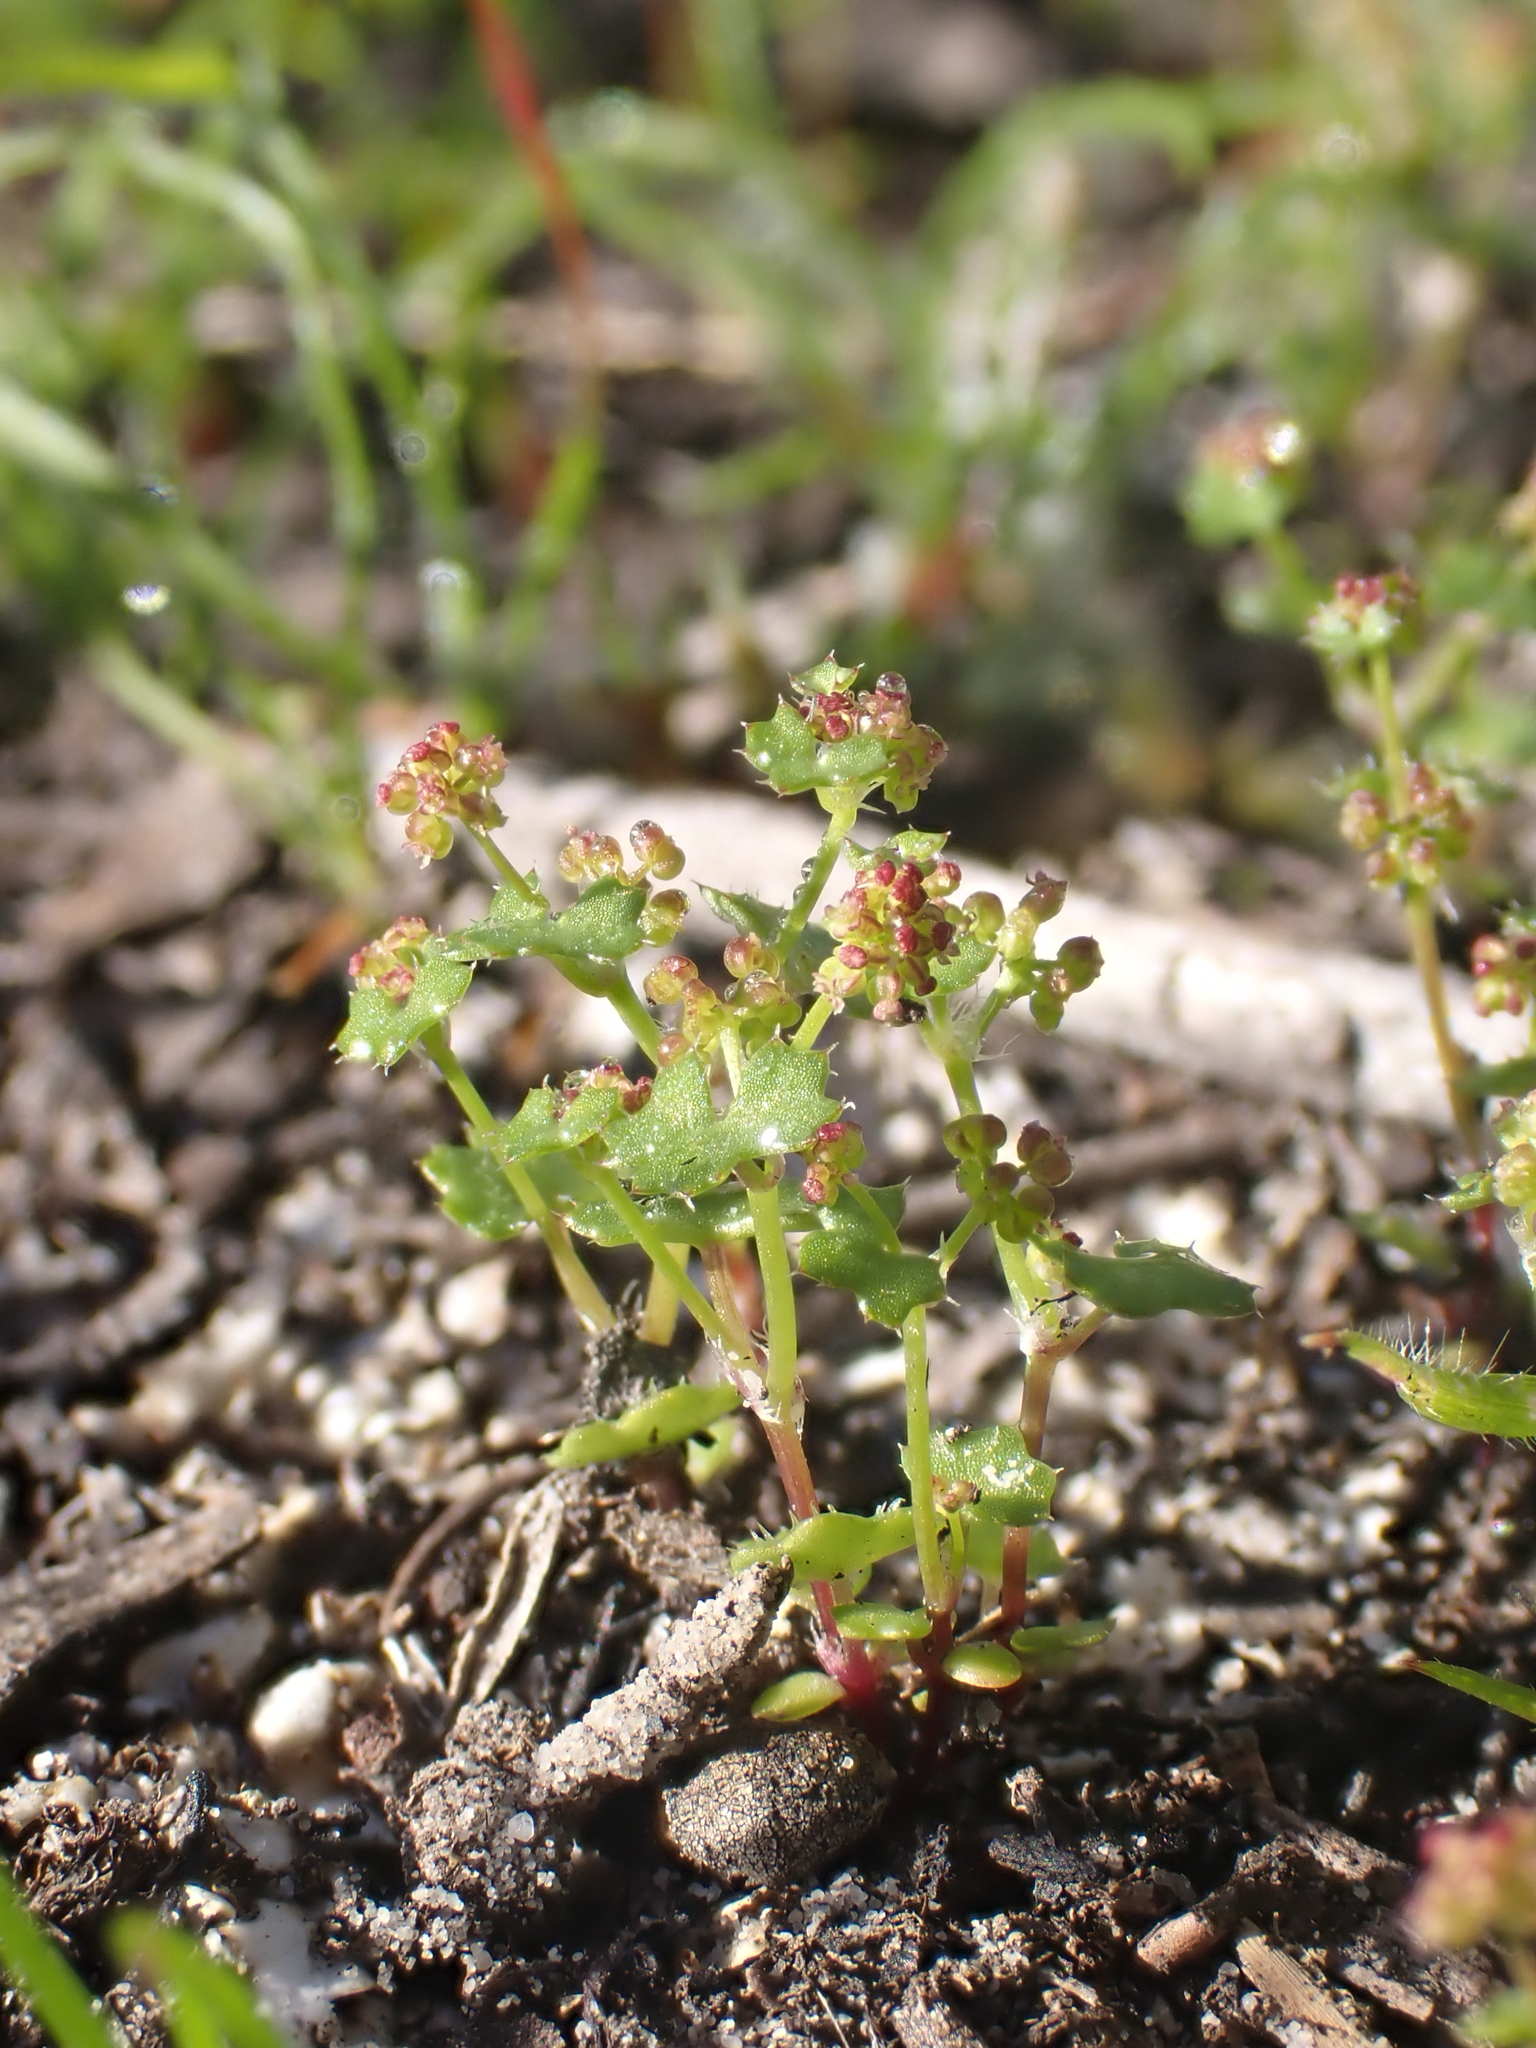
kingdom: Plantae
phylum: Tracheophyta
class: Magnoliopsida
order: Apiales
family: Araliaceae
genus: Hydrocotyle
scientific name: Hydrocotyle callicarpa
